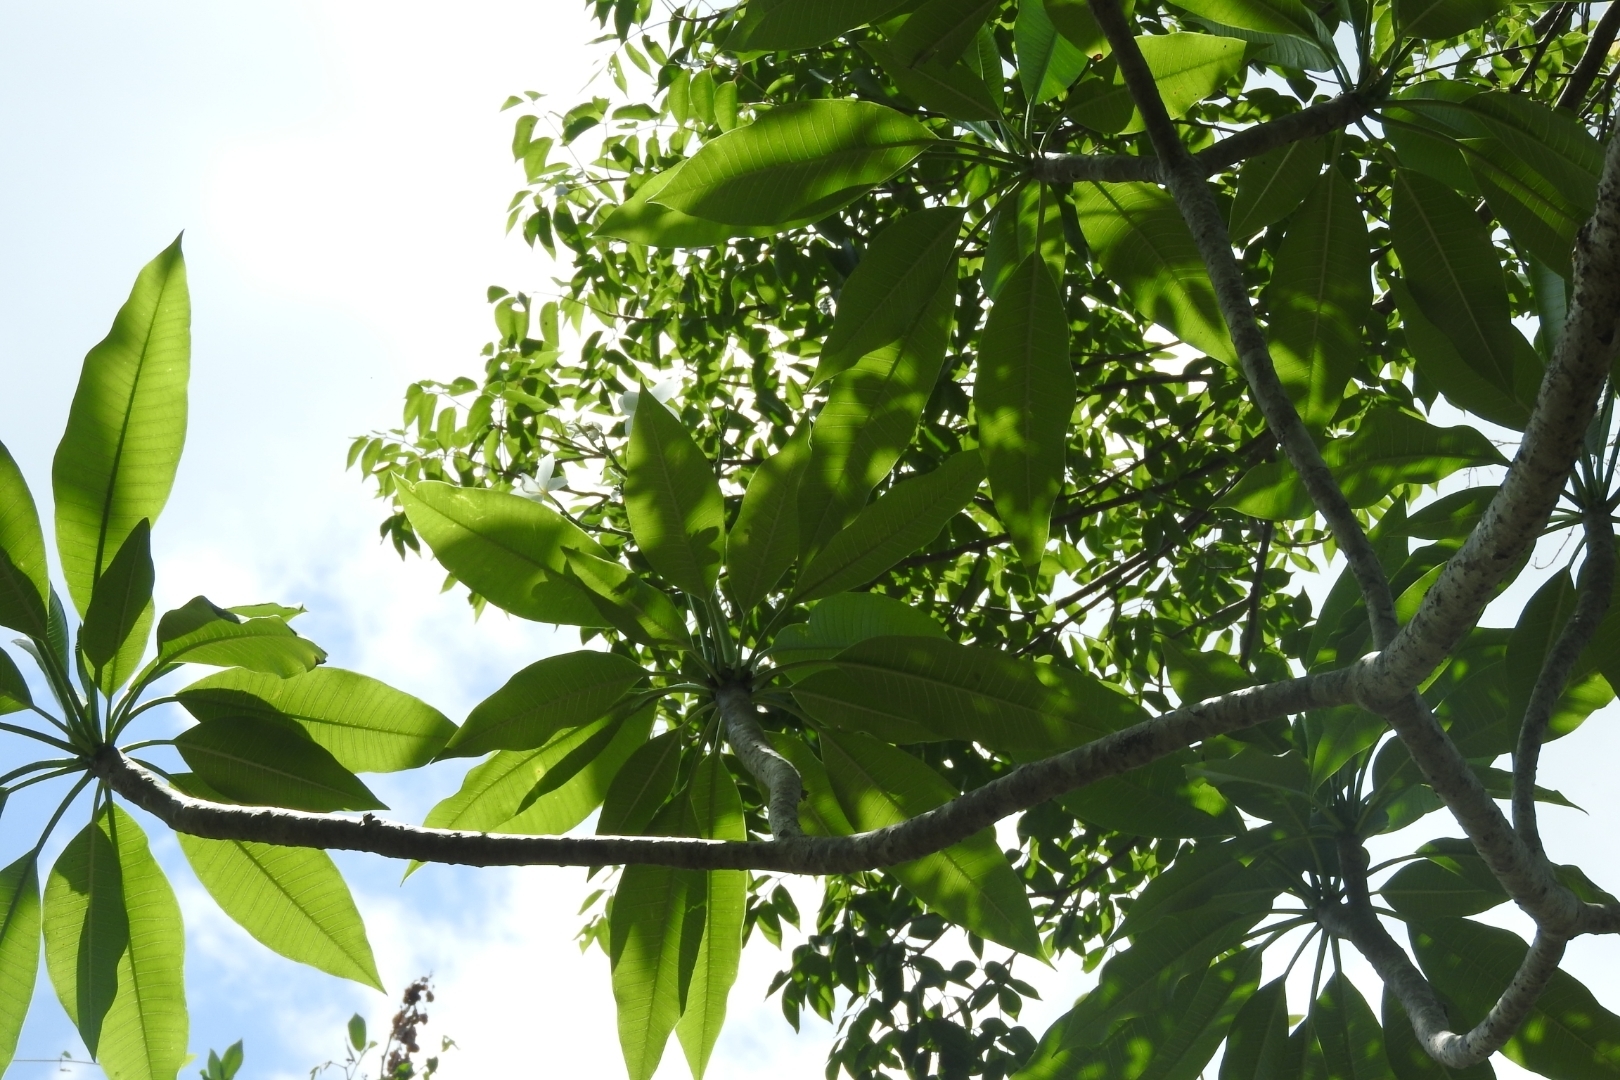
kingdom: Plantae
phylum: Tracheophyta
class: Magnoliopsida
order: Gentianales
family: Apocynaceae
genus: Plumeria
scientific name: Plumeria rubra
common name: Pagoda-tree
